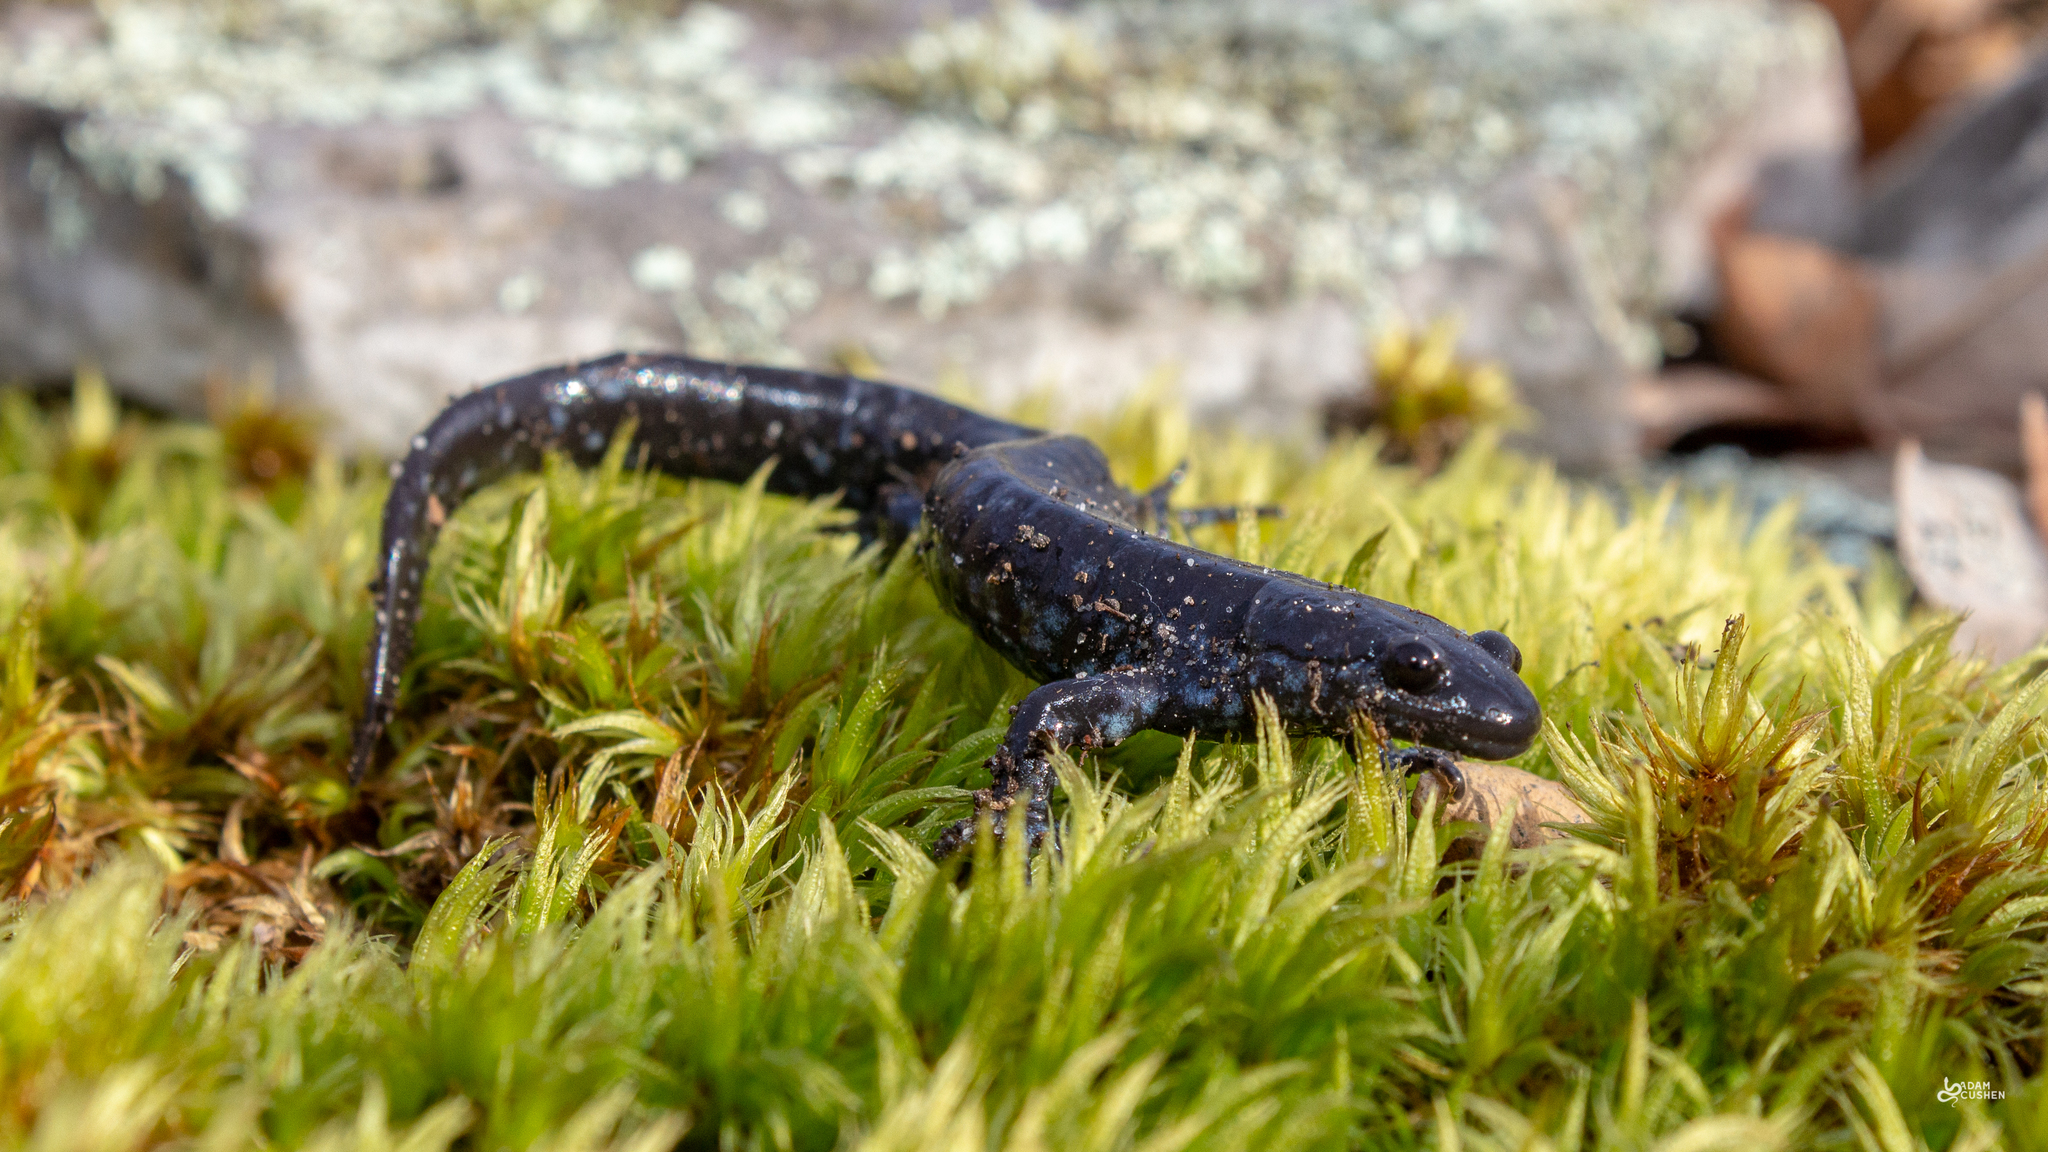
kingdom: Animalia
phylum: Chordata
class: Amphibia
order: Caudata
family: Ambystomatidae
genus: Ambystoma
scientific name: Ambystoma laterale
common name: Blue-spotted salamander
